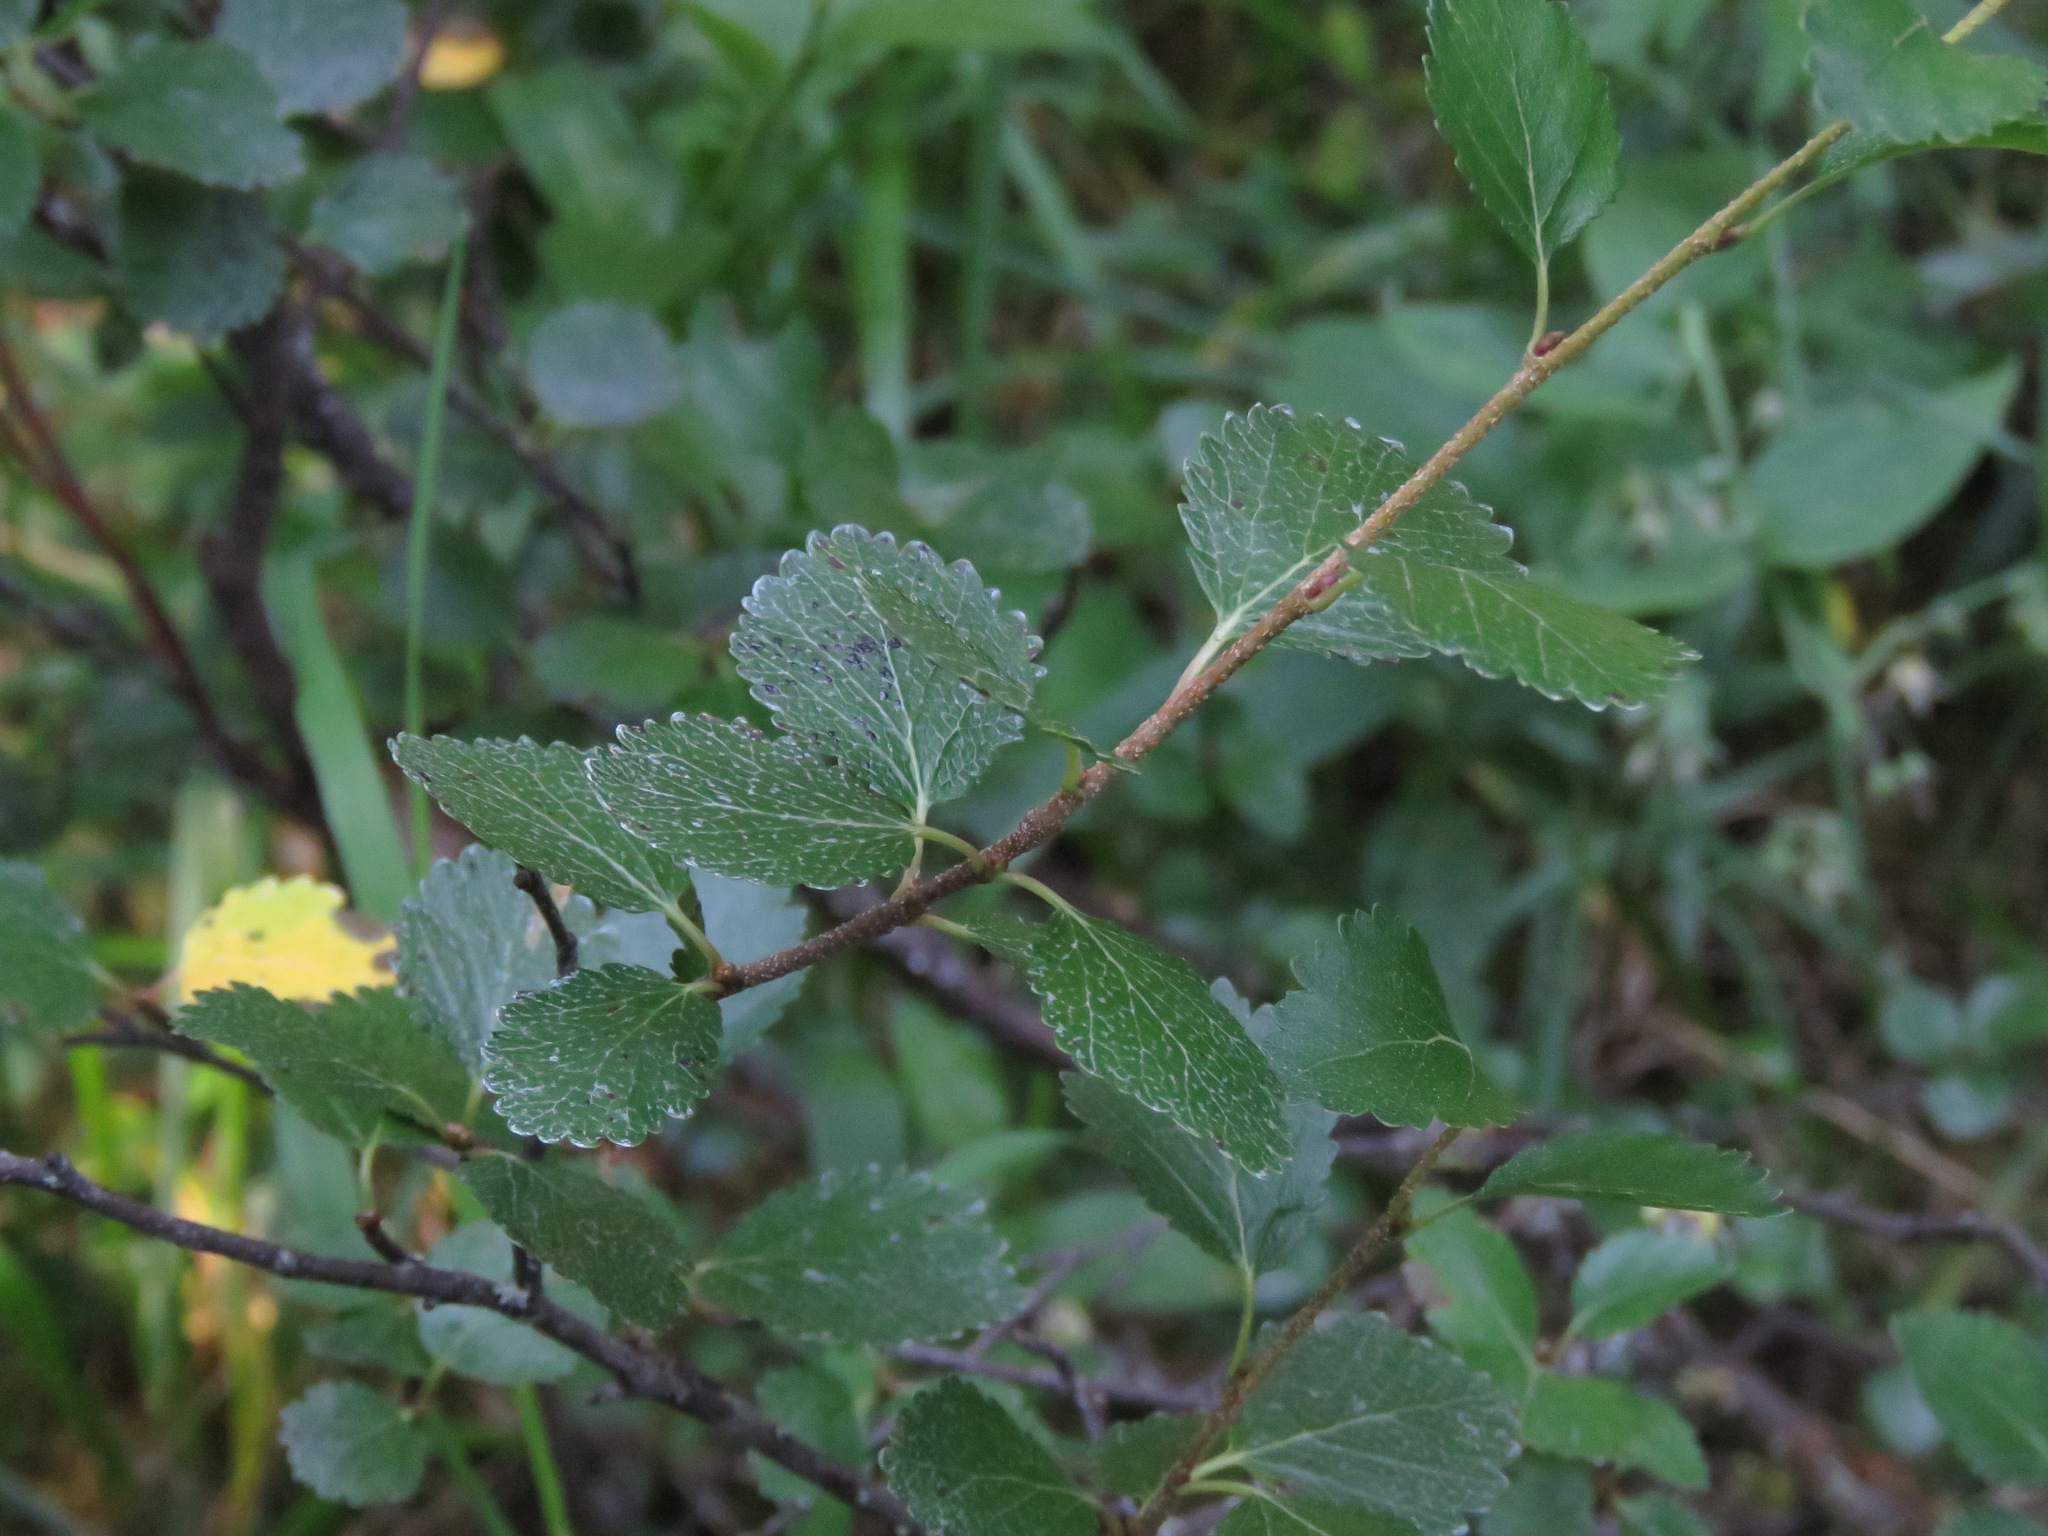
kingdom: Plantae
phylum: Tracheophyta
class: Magnoliopsida
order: Fagales
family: Betulaceae
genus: Betula
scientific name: Betula glandulosa
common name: Dwarf birch
